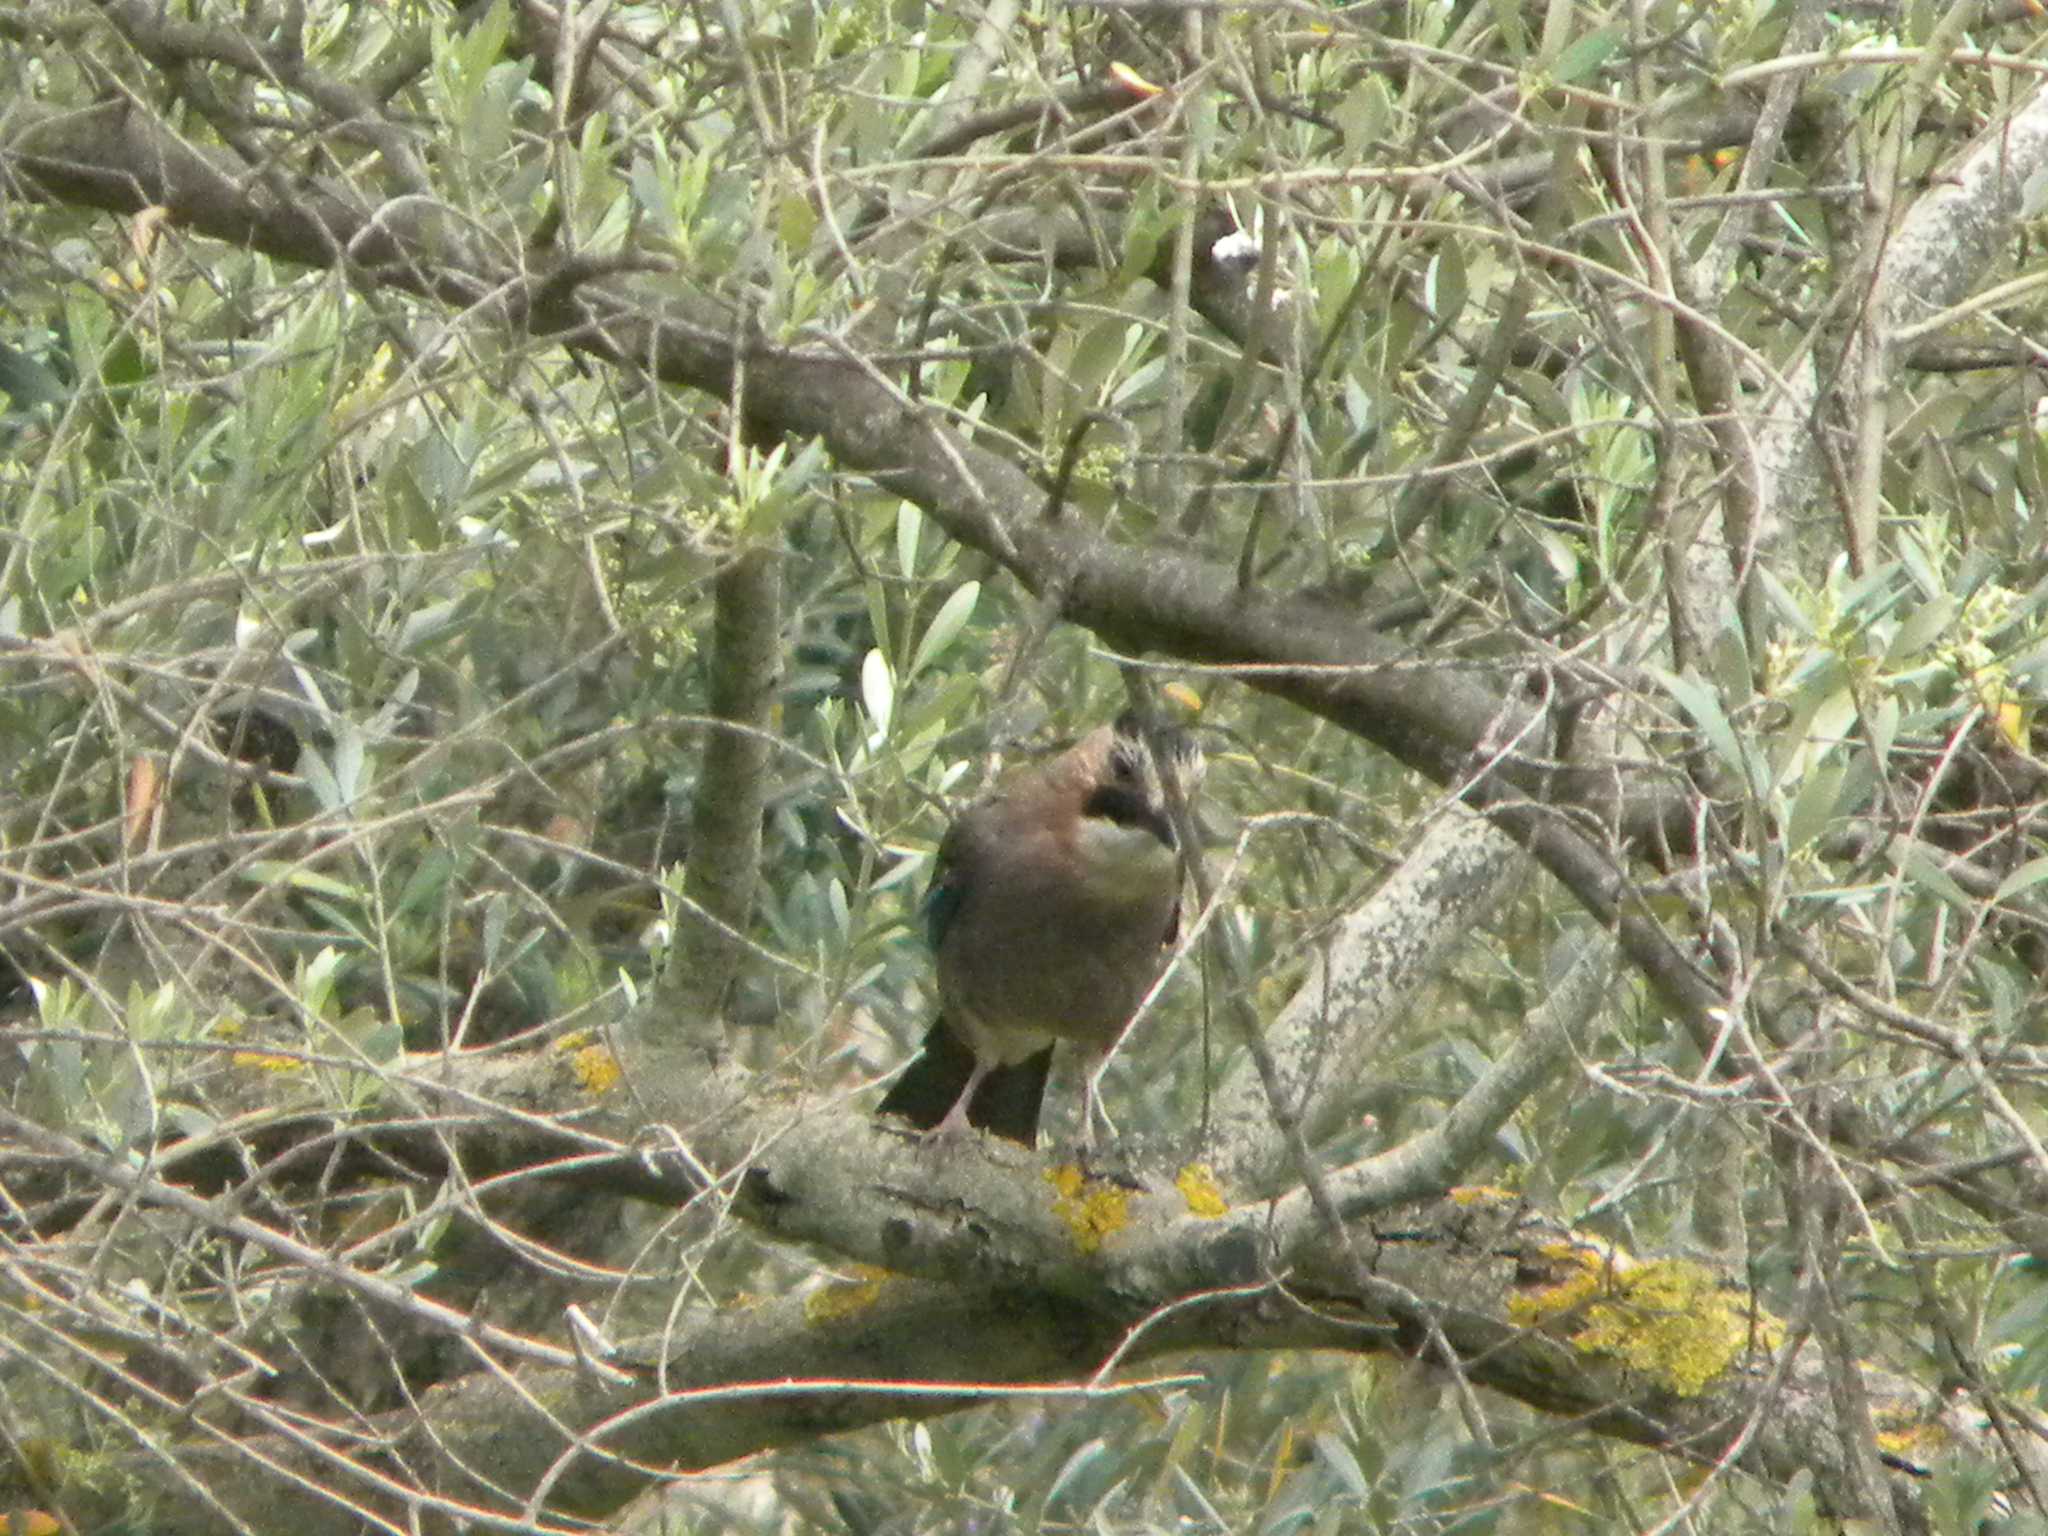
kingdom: Animalia
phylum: Chordata
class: Aves
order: Passeriformes
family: Corvidae
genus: Garrulus
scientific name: Garrulus glandarius
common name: Eurasian jay
